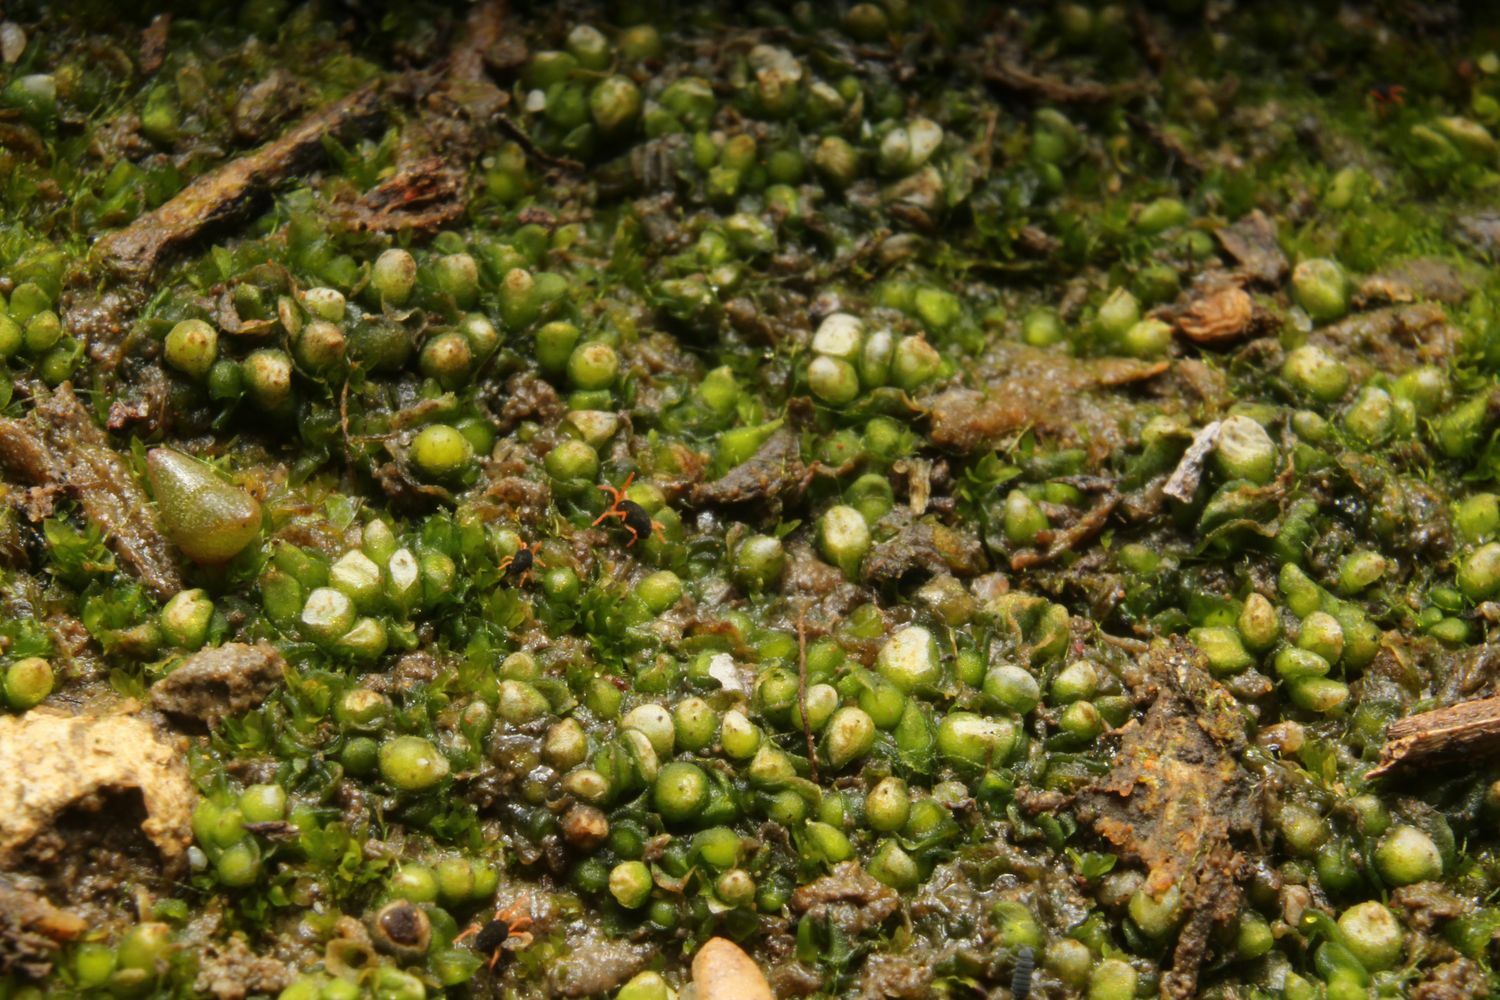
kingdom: Plantae
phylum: Marchantiophyta
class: Marchantiopsida
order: Sphaerocarpales
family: Riellaceae
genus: Austroriella
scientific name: Austroriella salta
